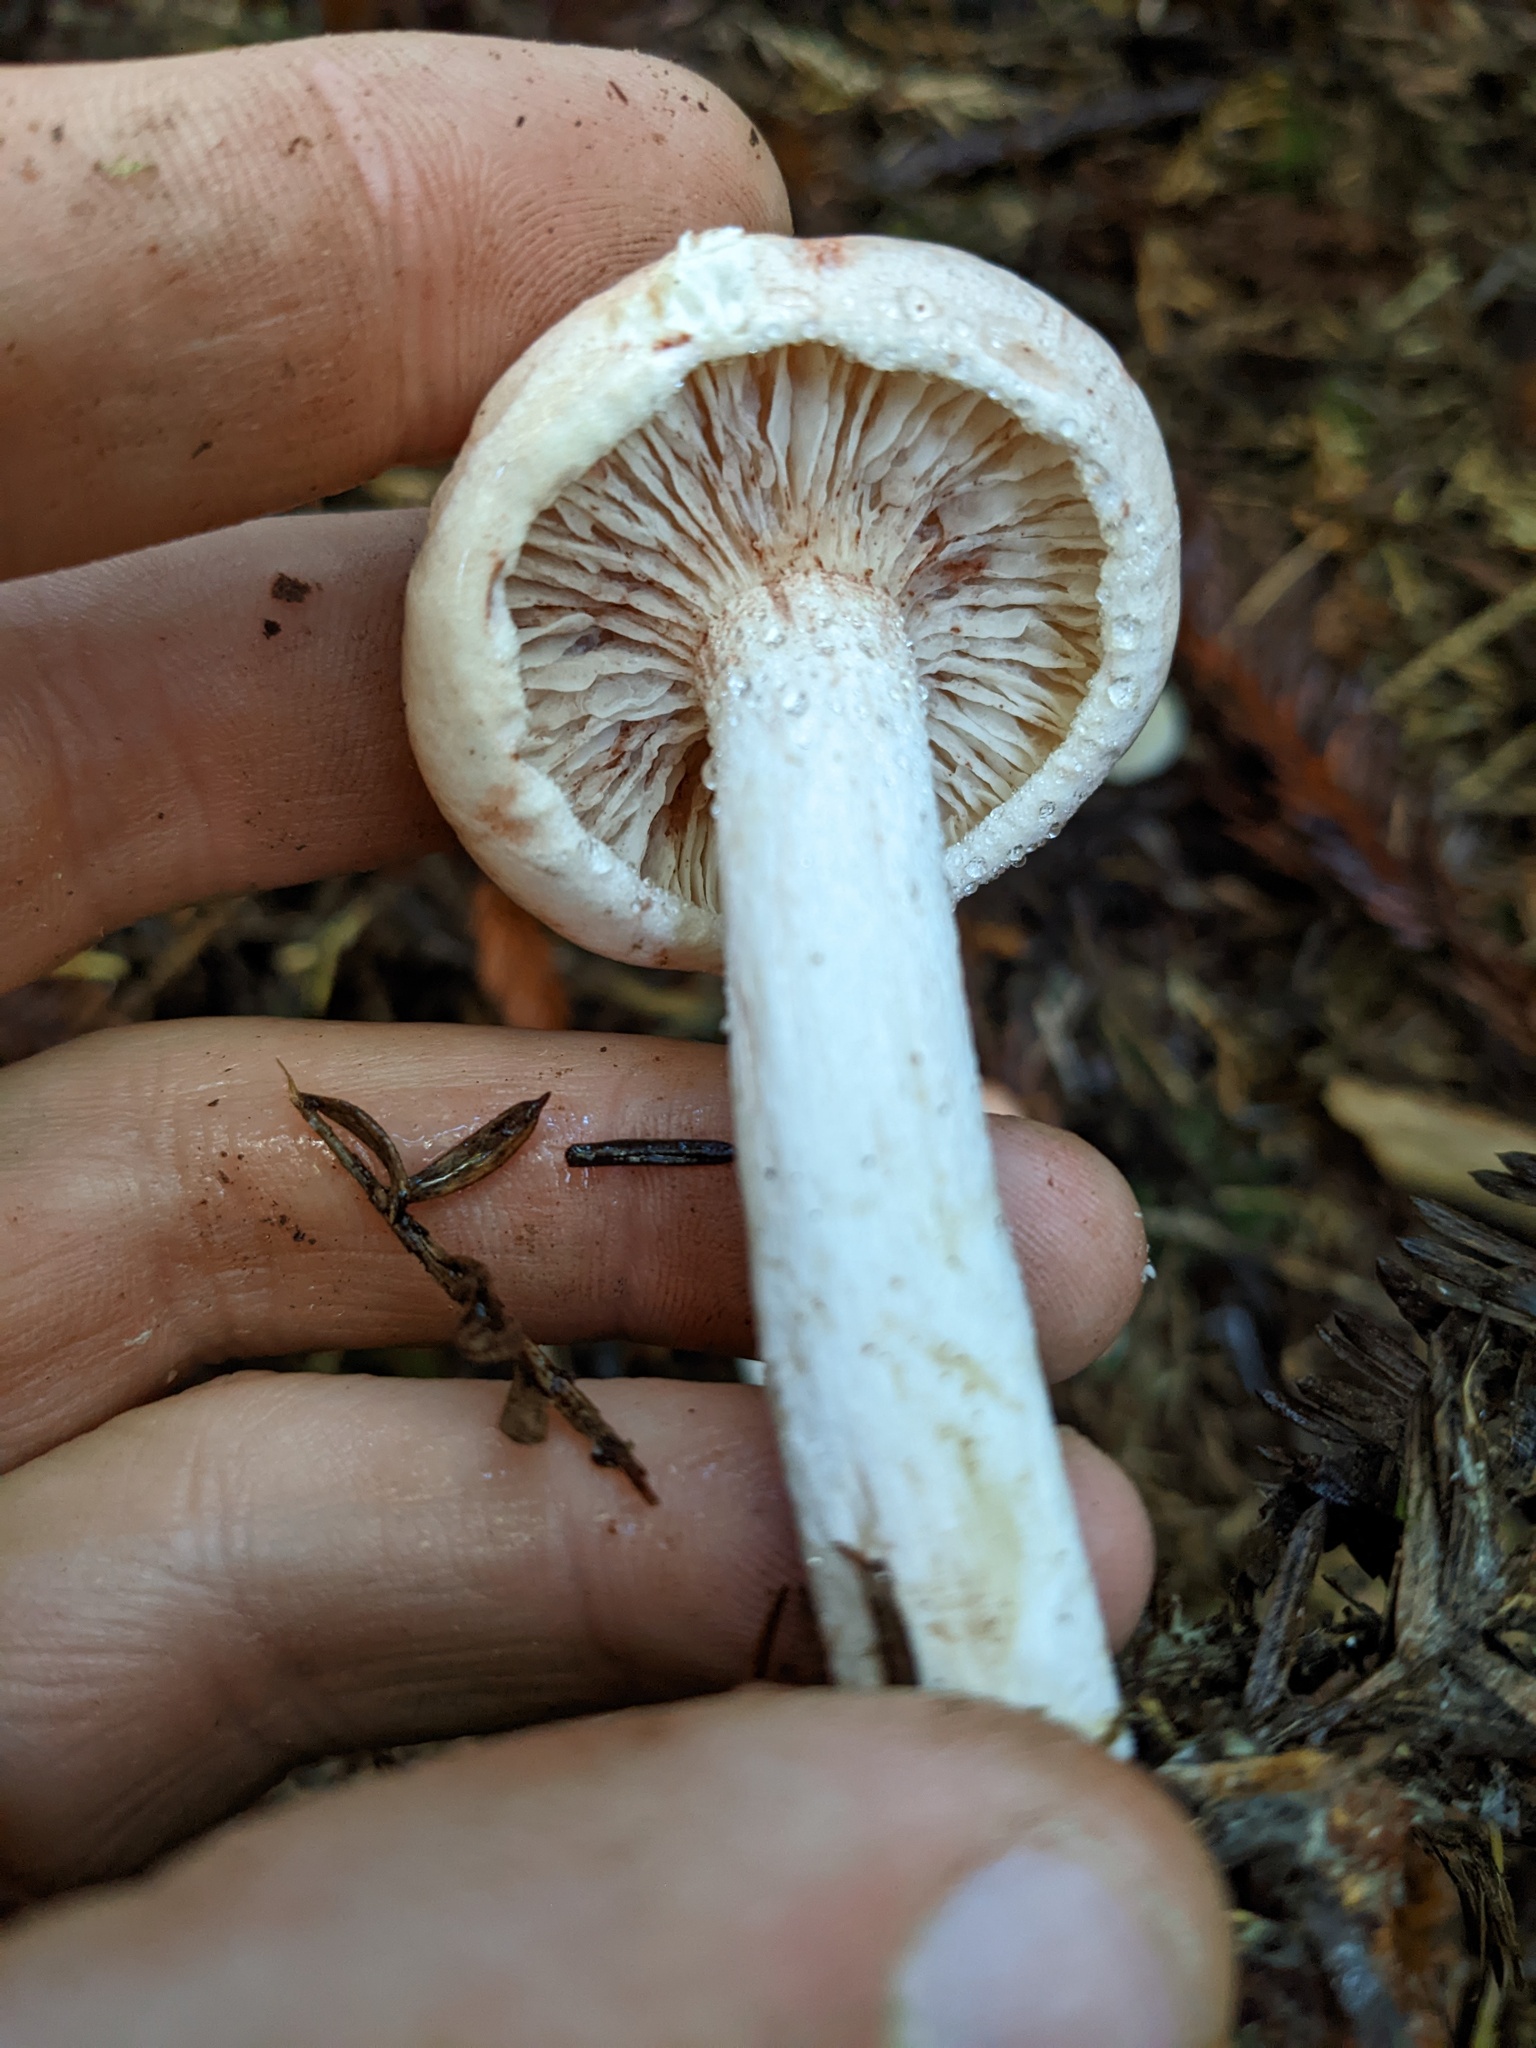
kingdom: Fungi
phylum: Basidiomycota
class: Agaricomycetes
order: Agaricales
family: Hygrophoraceae
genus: Hygrophorus
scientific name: Hygrophorus erubescens
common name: Blotched woodwax
